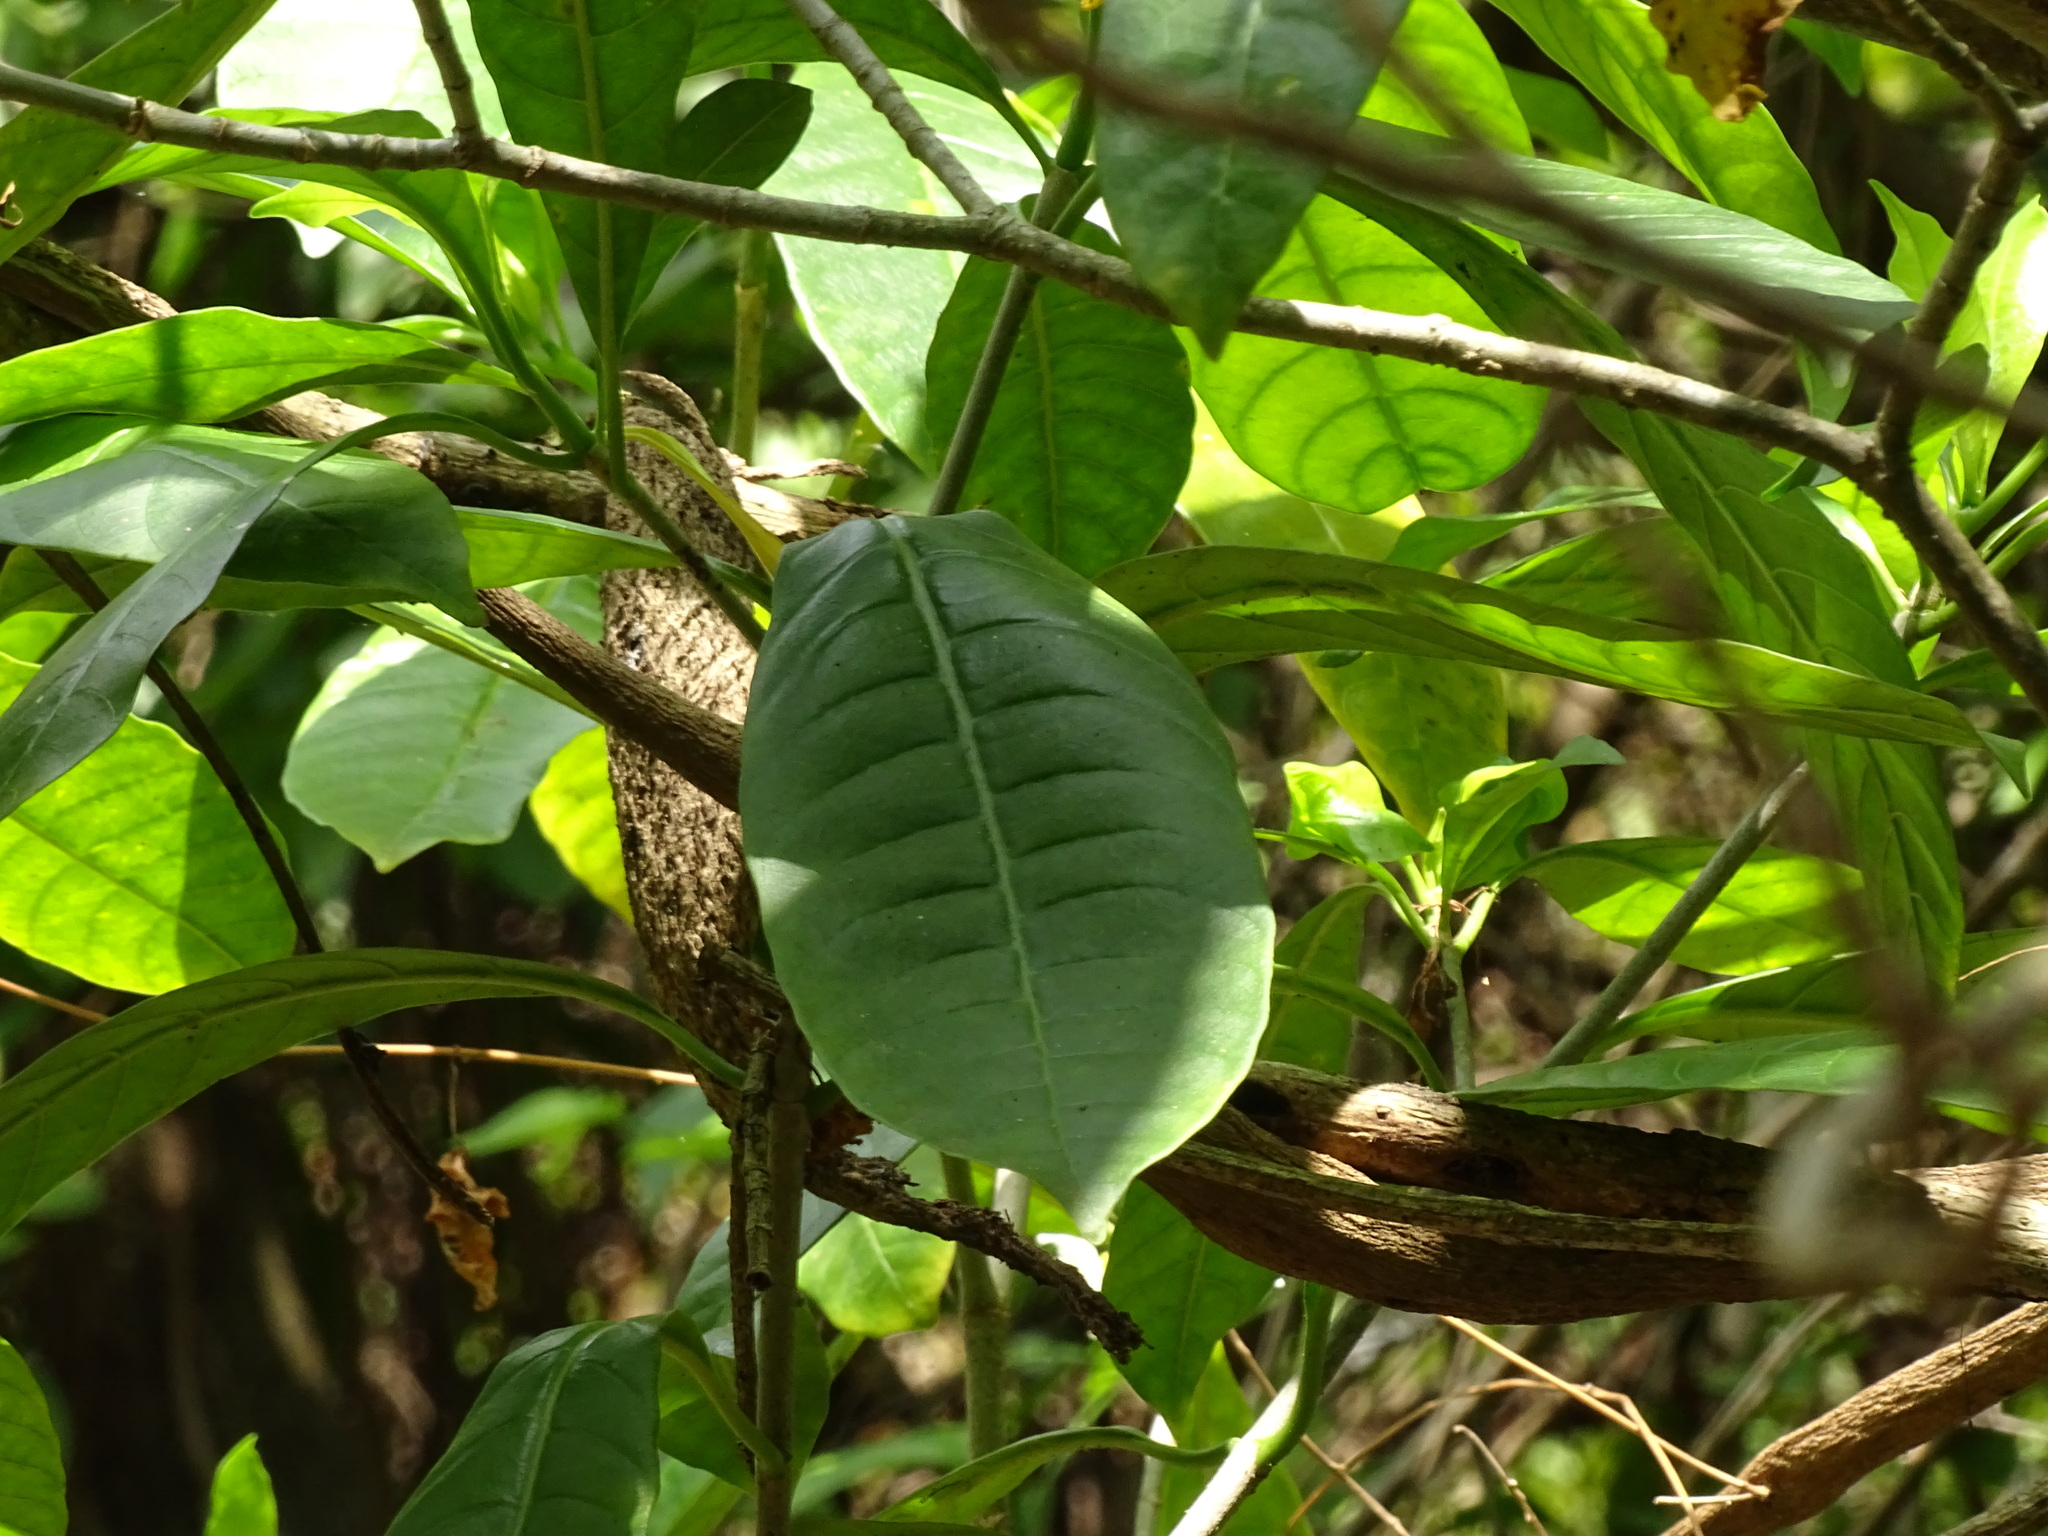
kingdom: Plantae
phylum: Tracheophyta
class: Magnoliopsida
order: Gentianales
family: Apocynaceae
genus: Tabernaemontana
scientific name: Tabernaemontana alba
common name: White milkwood
